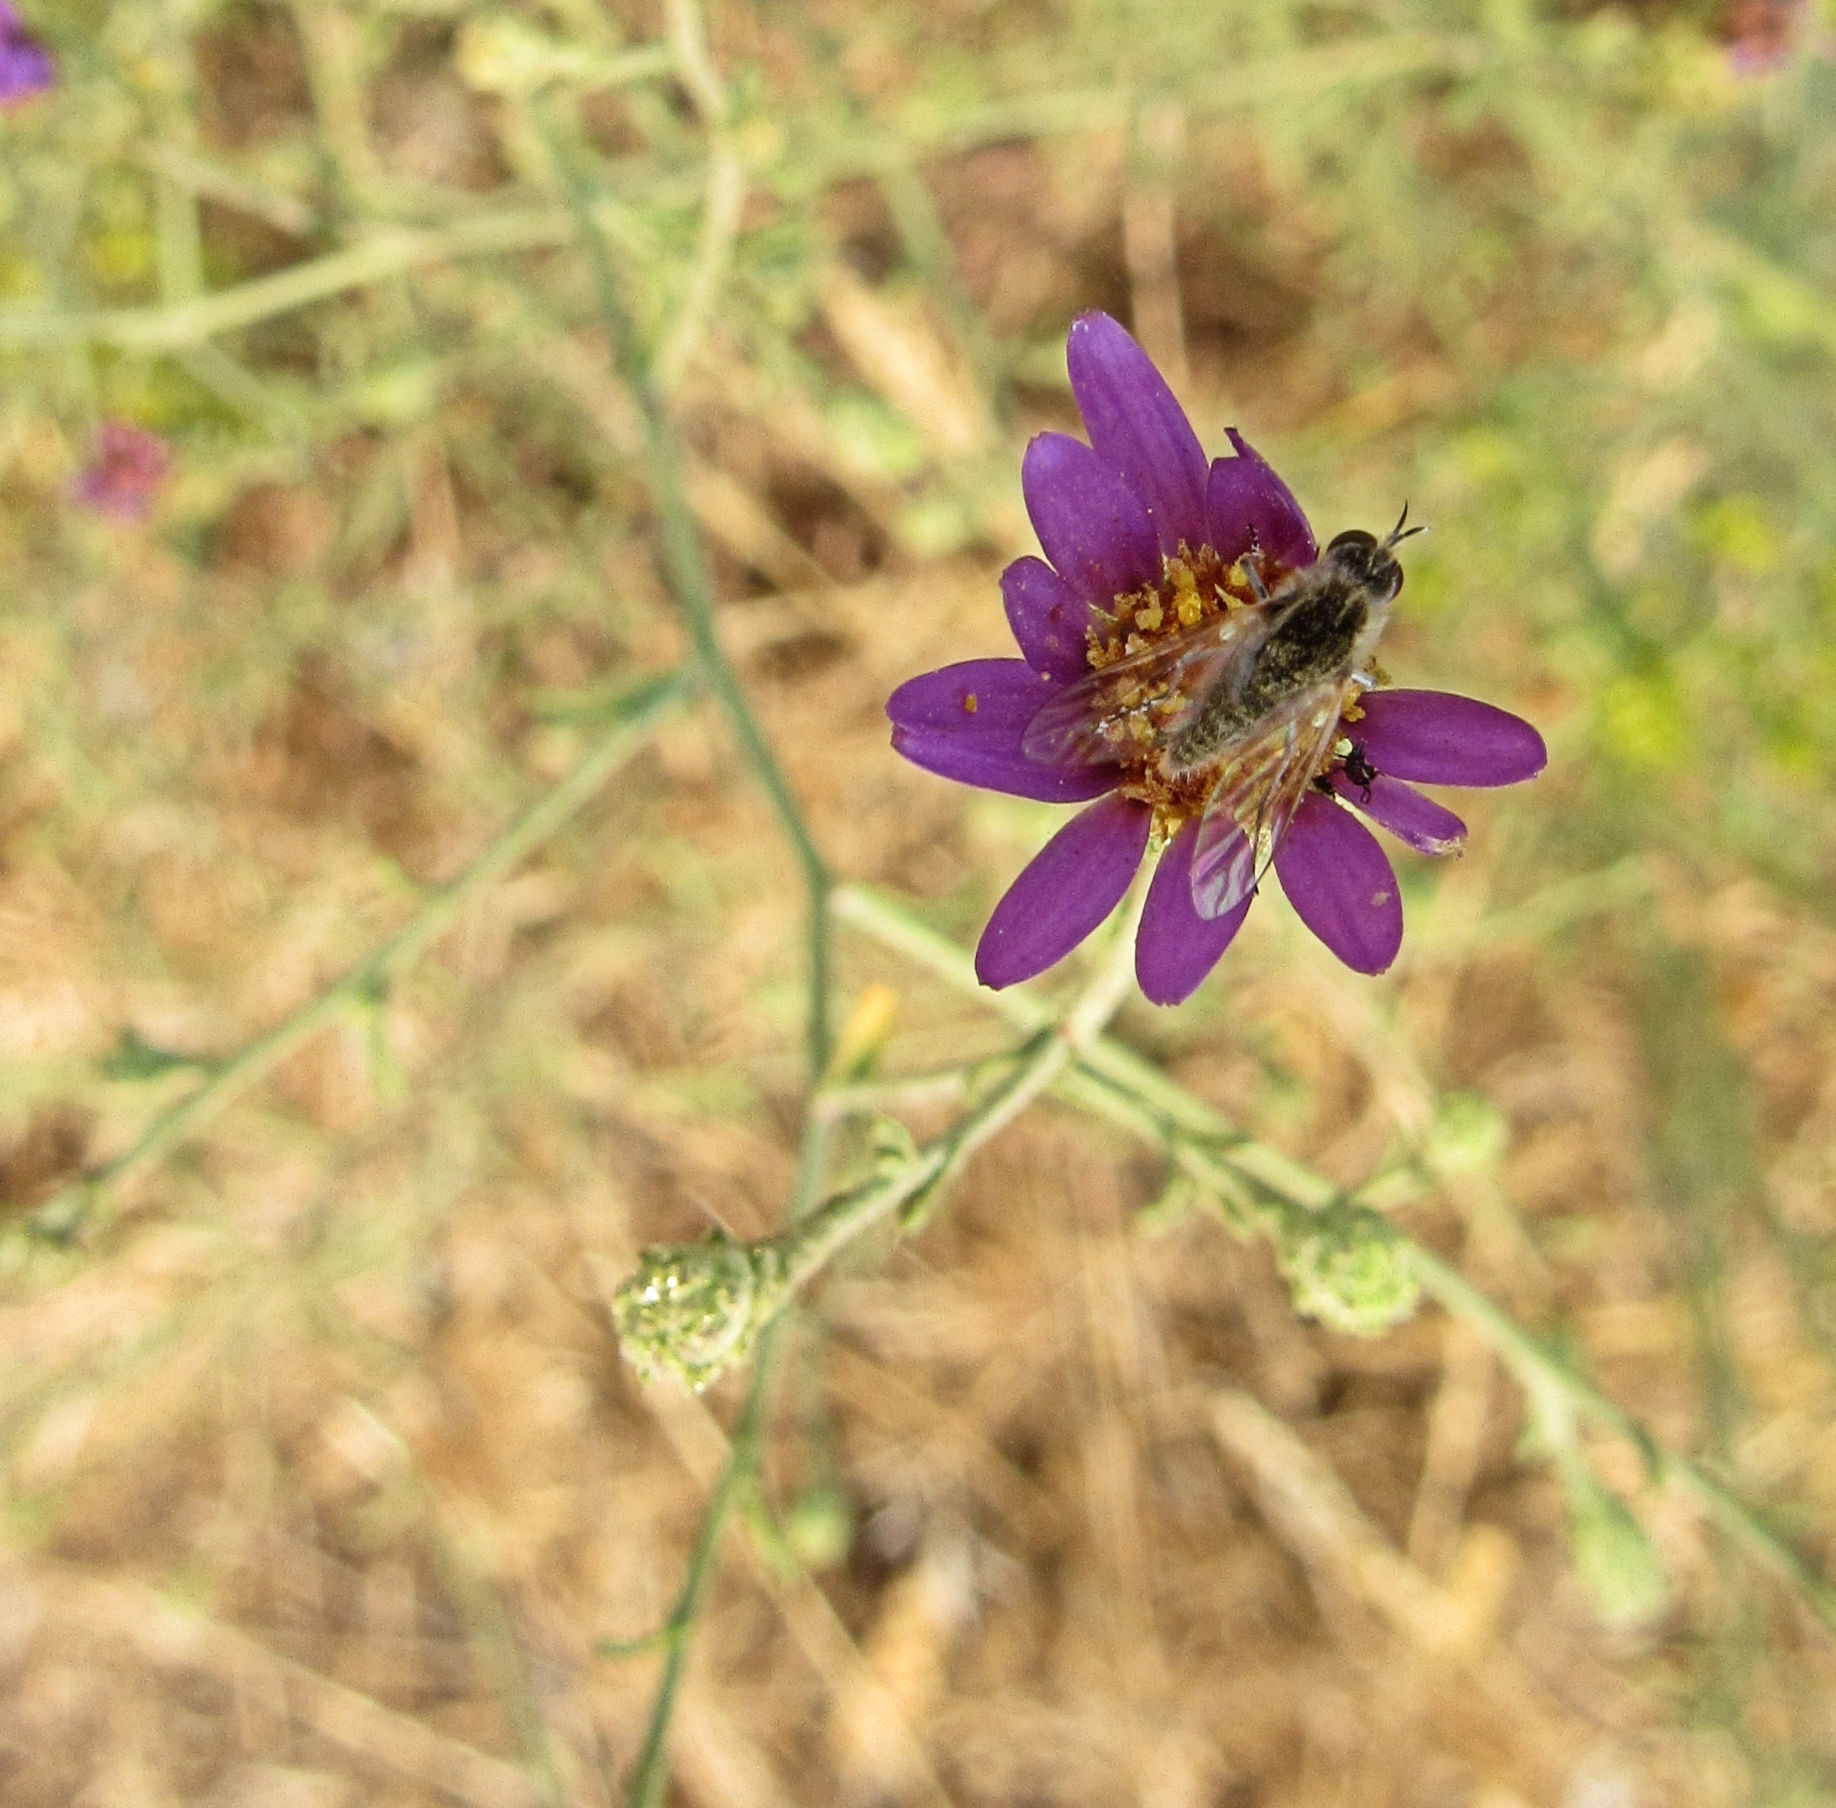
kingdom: Plantae
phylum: Tracheophyta
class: Magnoliopsida
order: Asterales
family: Asteraceae
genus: Dieteria
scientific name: Dieteria canescens
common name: Hoary-aster
